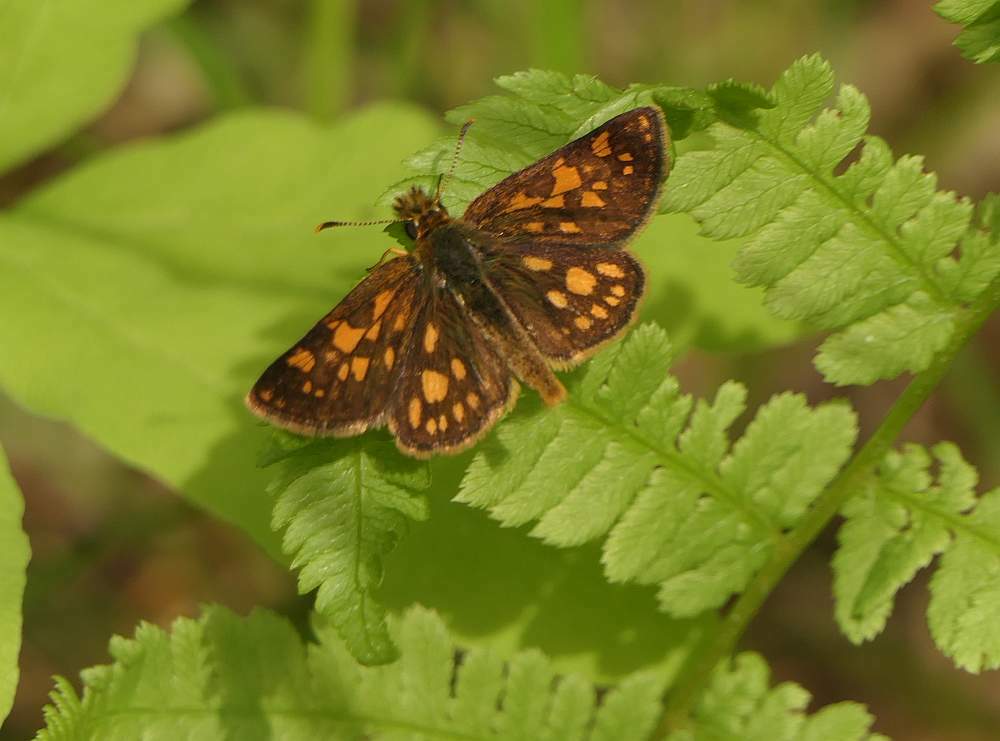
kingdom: Animalia
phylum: Arthropoda
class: Insecta
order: Lepidoptera
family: Hesperiidae
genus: Carterocephalus
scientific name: Carterocephalus mandan
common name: Arctic skipperling
